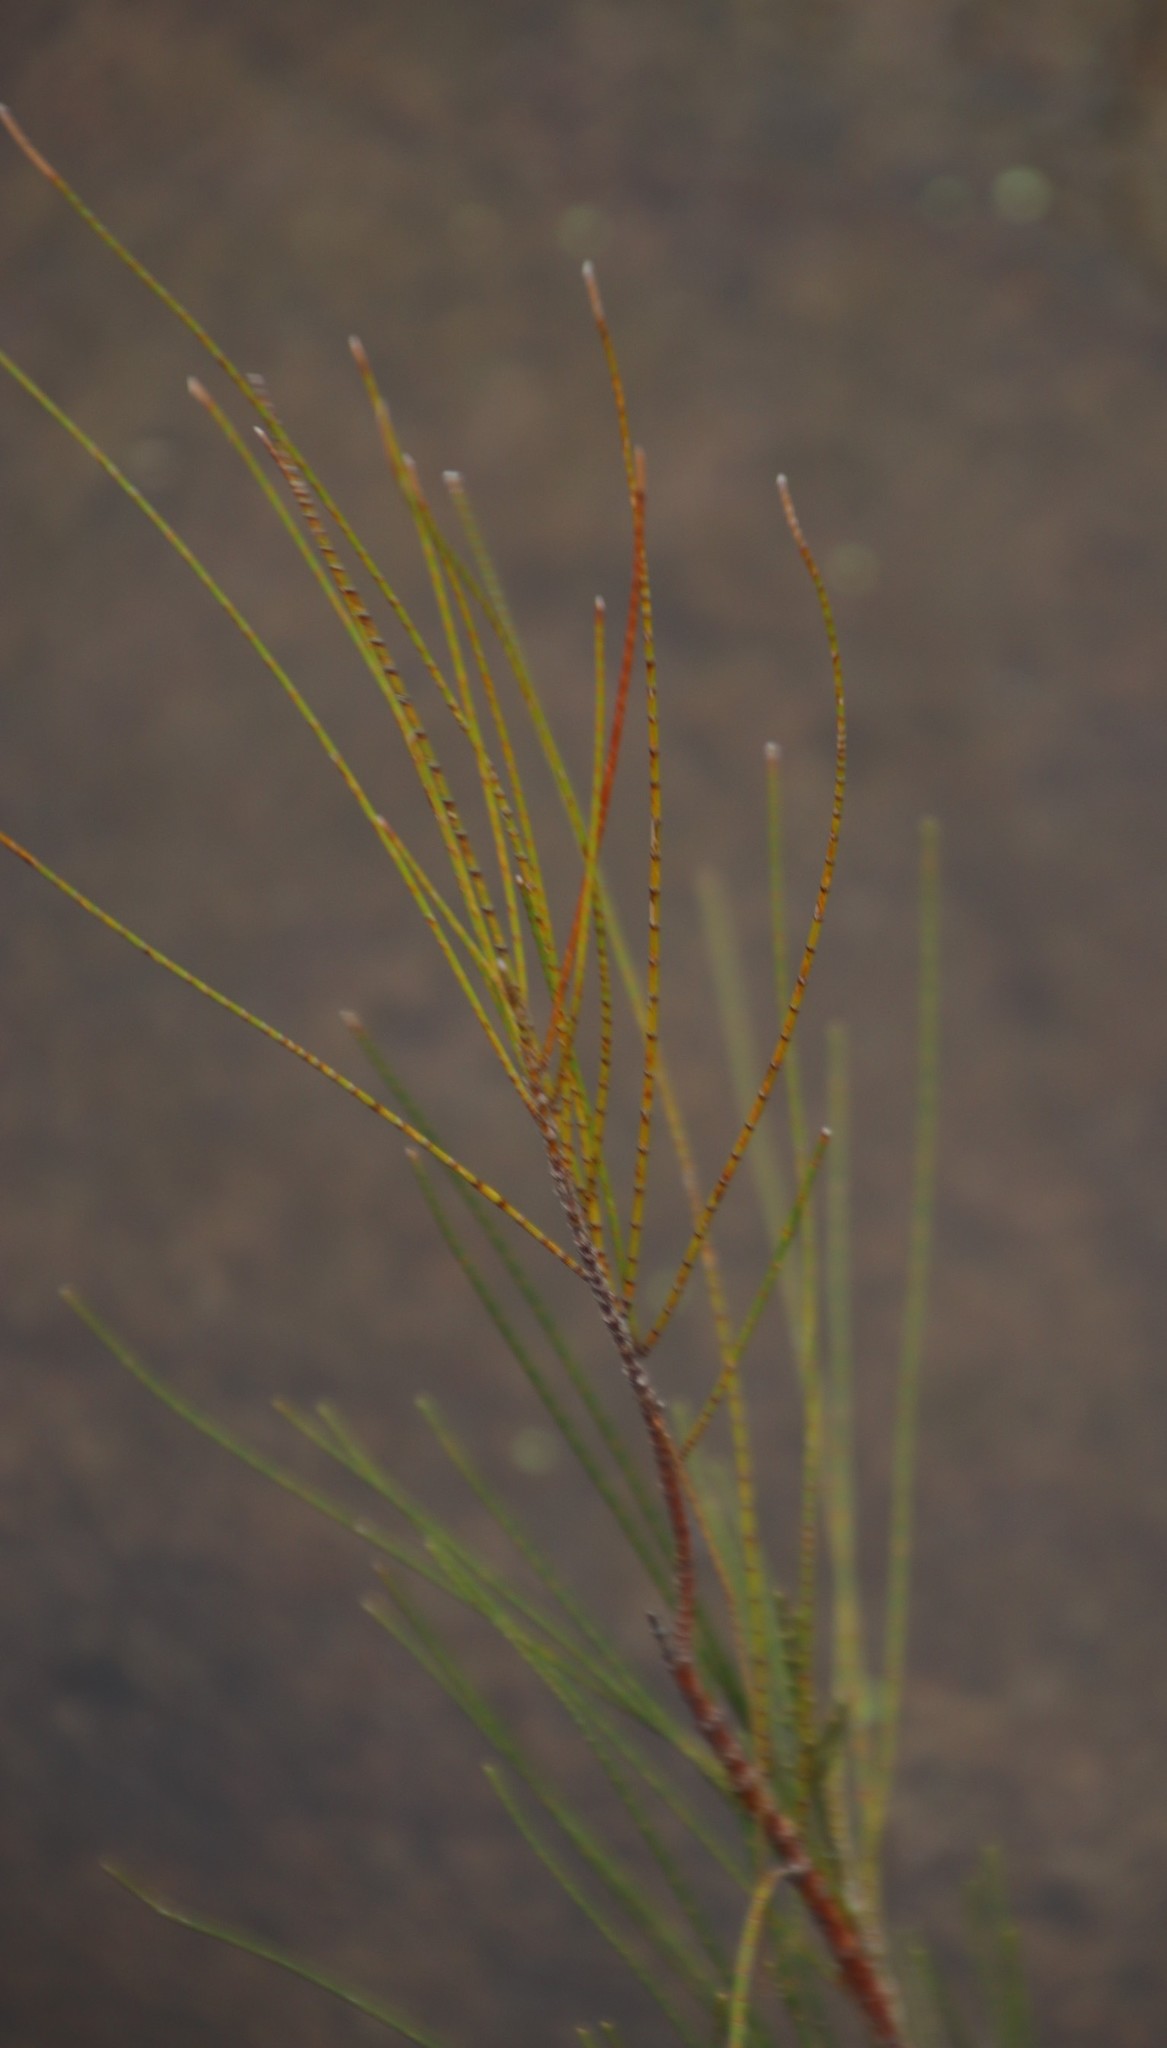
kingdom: Plantae
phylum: Tracheophyta
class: Magnoliopsida
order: Fagales
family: Casuarinaceae
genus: Casuarina
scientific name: Casuarina cunninghamiana
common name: River sheoak
